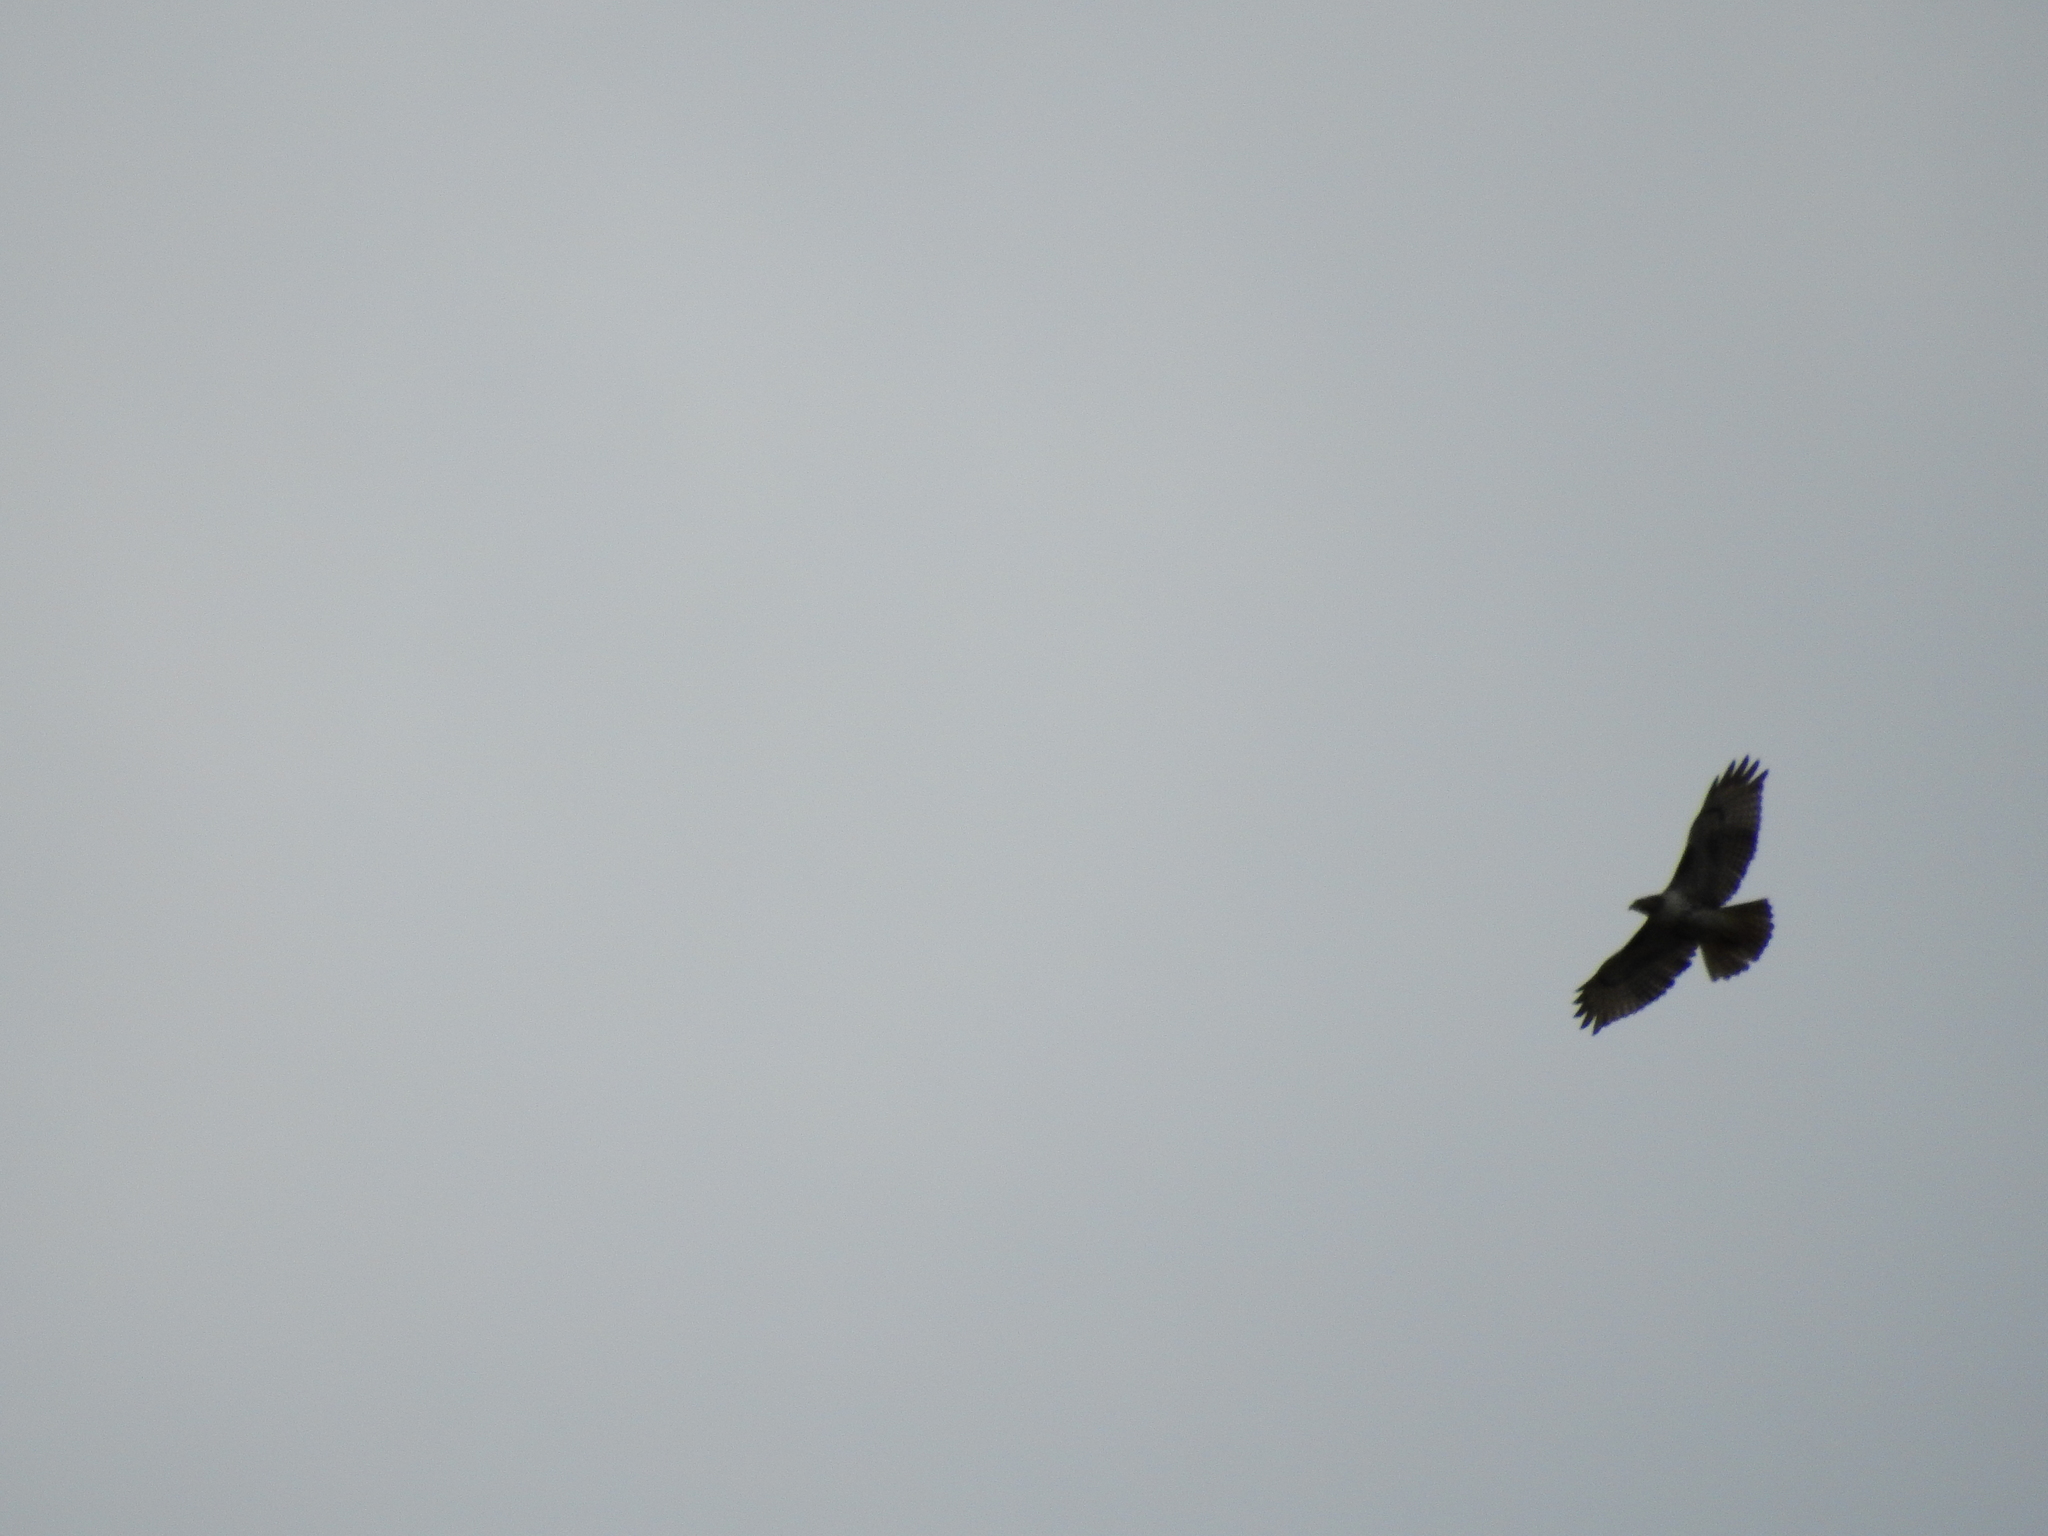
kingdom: Animalia
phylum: Chordata
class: Aves
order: Accipitriformes
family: Accipitridae
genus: Buteo
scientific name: Buteo jamaicensis
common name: Red-tailed hawk
